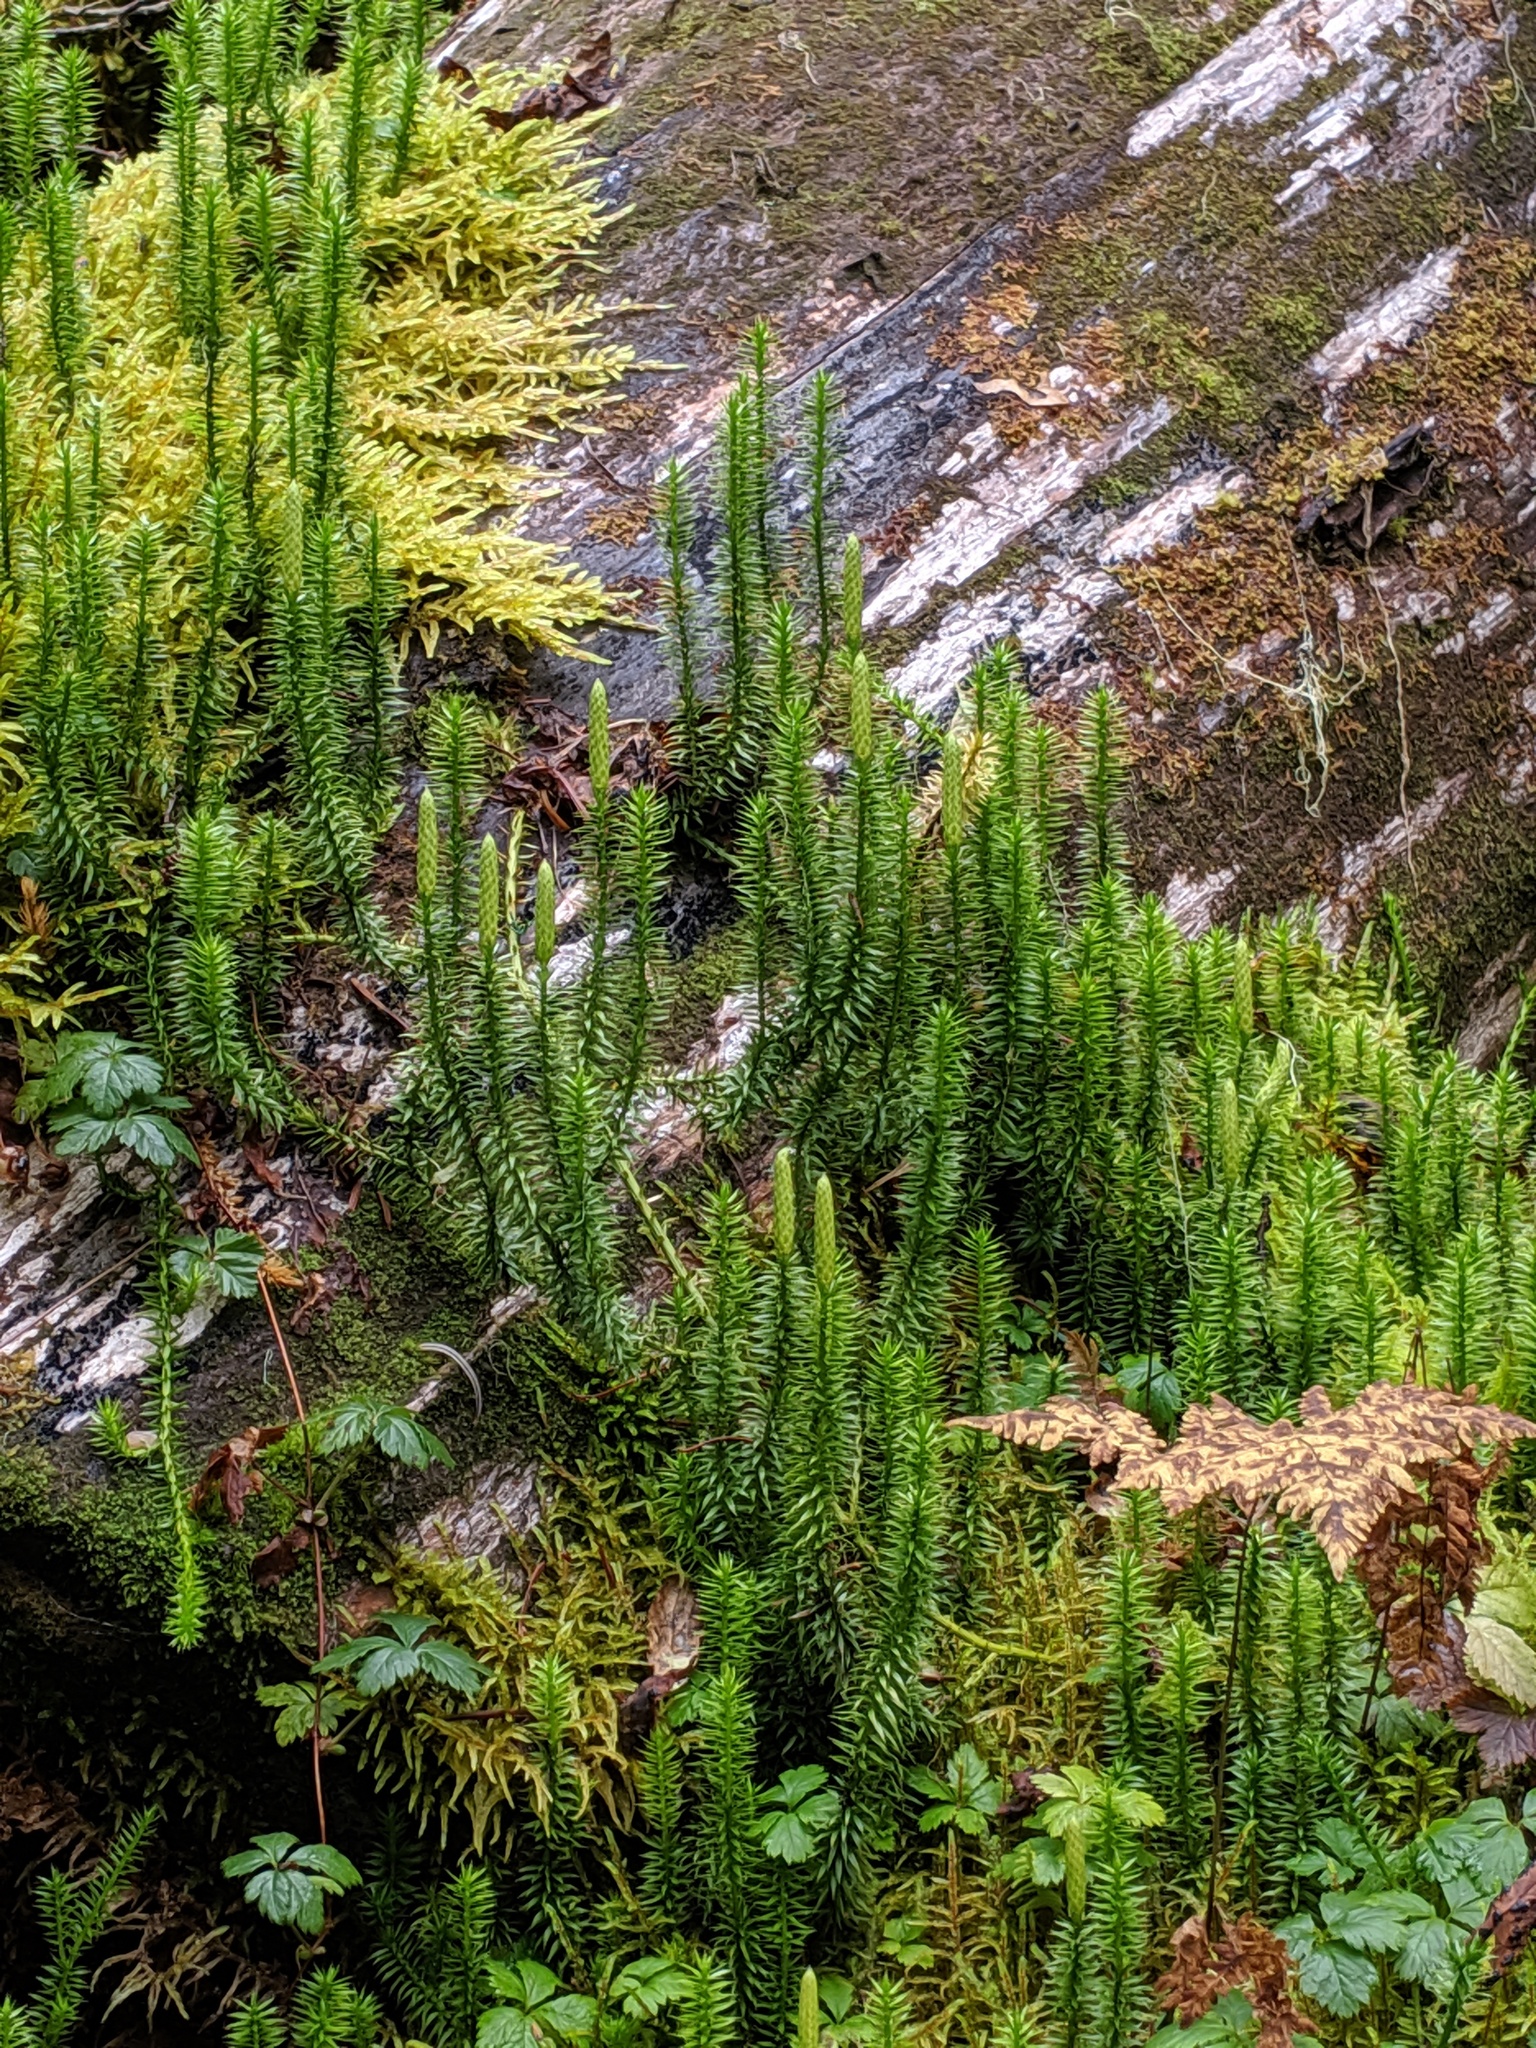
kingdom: Plantae
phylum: Tracheophyta
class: Lycopodiopsida
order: Lycopodiales
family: Lycopodiaceae
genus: Spinulum
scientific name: Spinulum annotinum
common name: Interrupted club-moss
